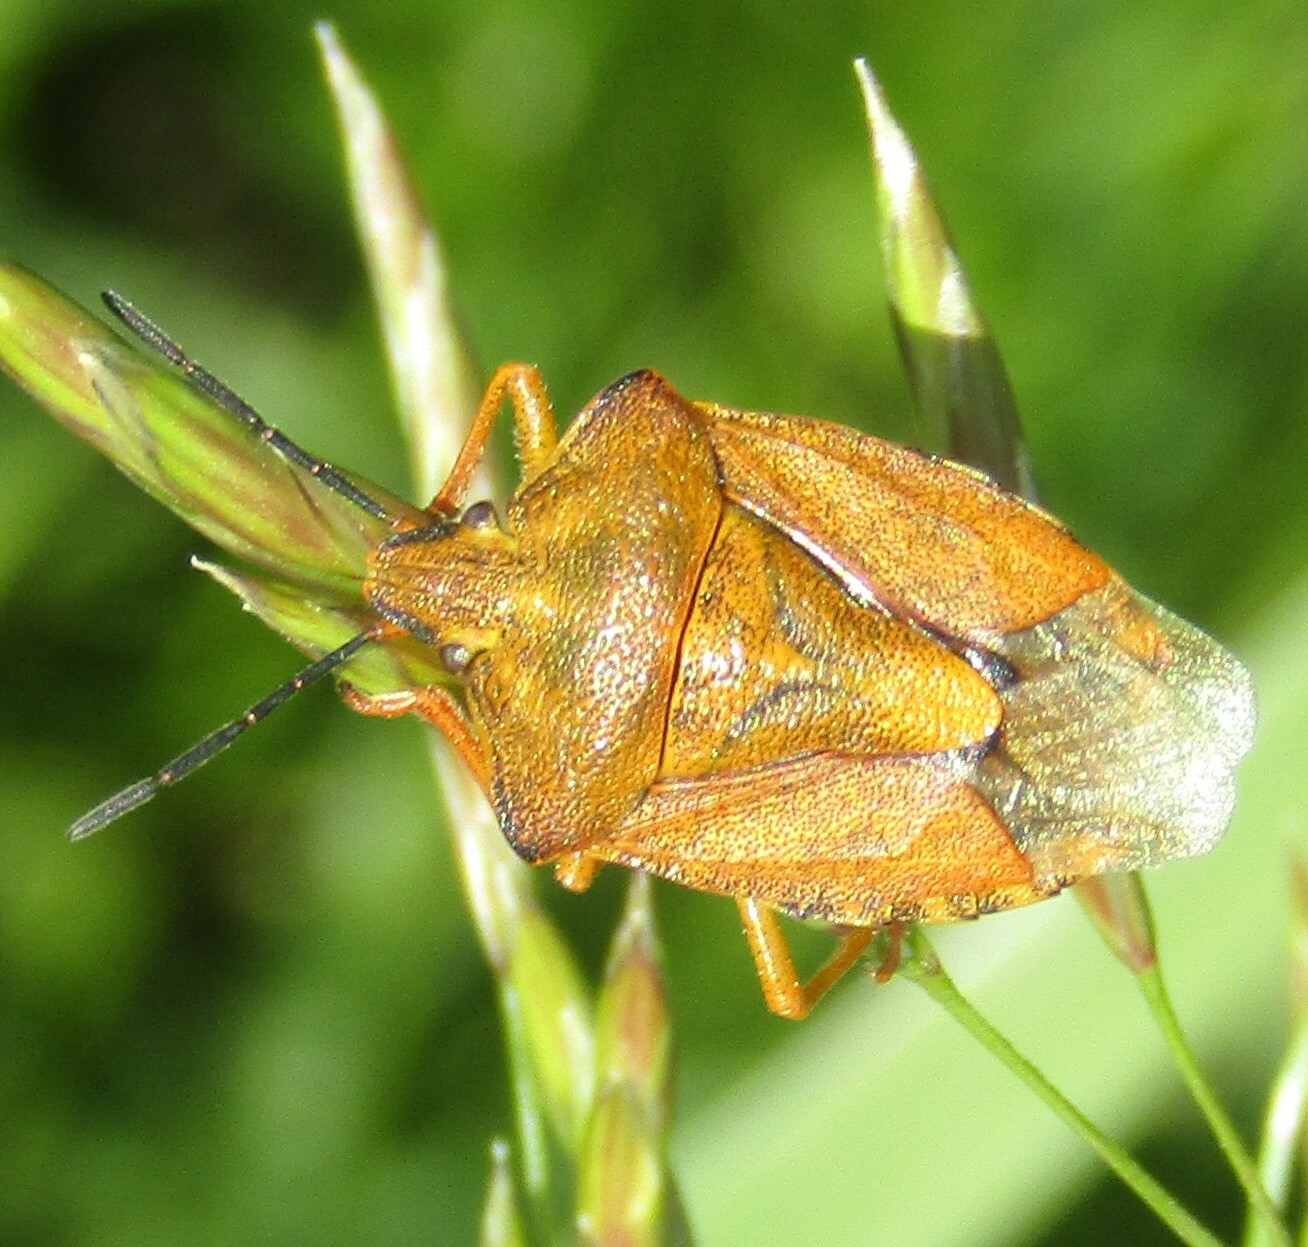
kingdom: Animalia
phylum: Arthropoda
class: Insecta
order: Hemiptera
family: Pentatomidae
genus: Carpocoris
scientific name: Carpocoris purpureipennis
